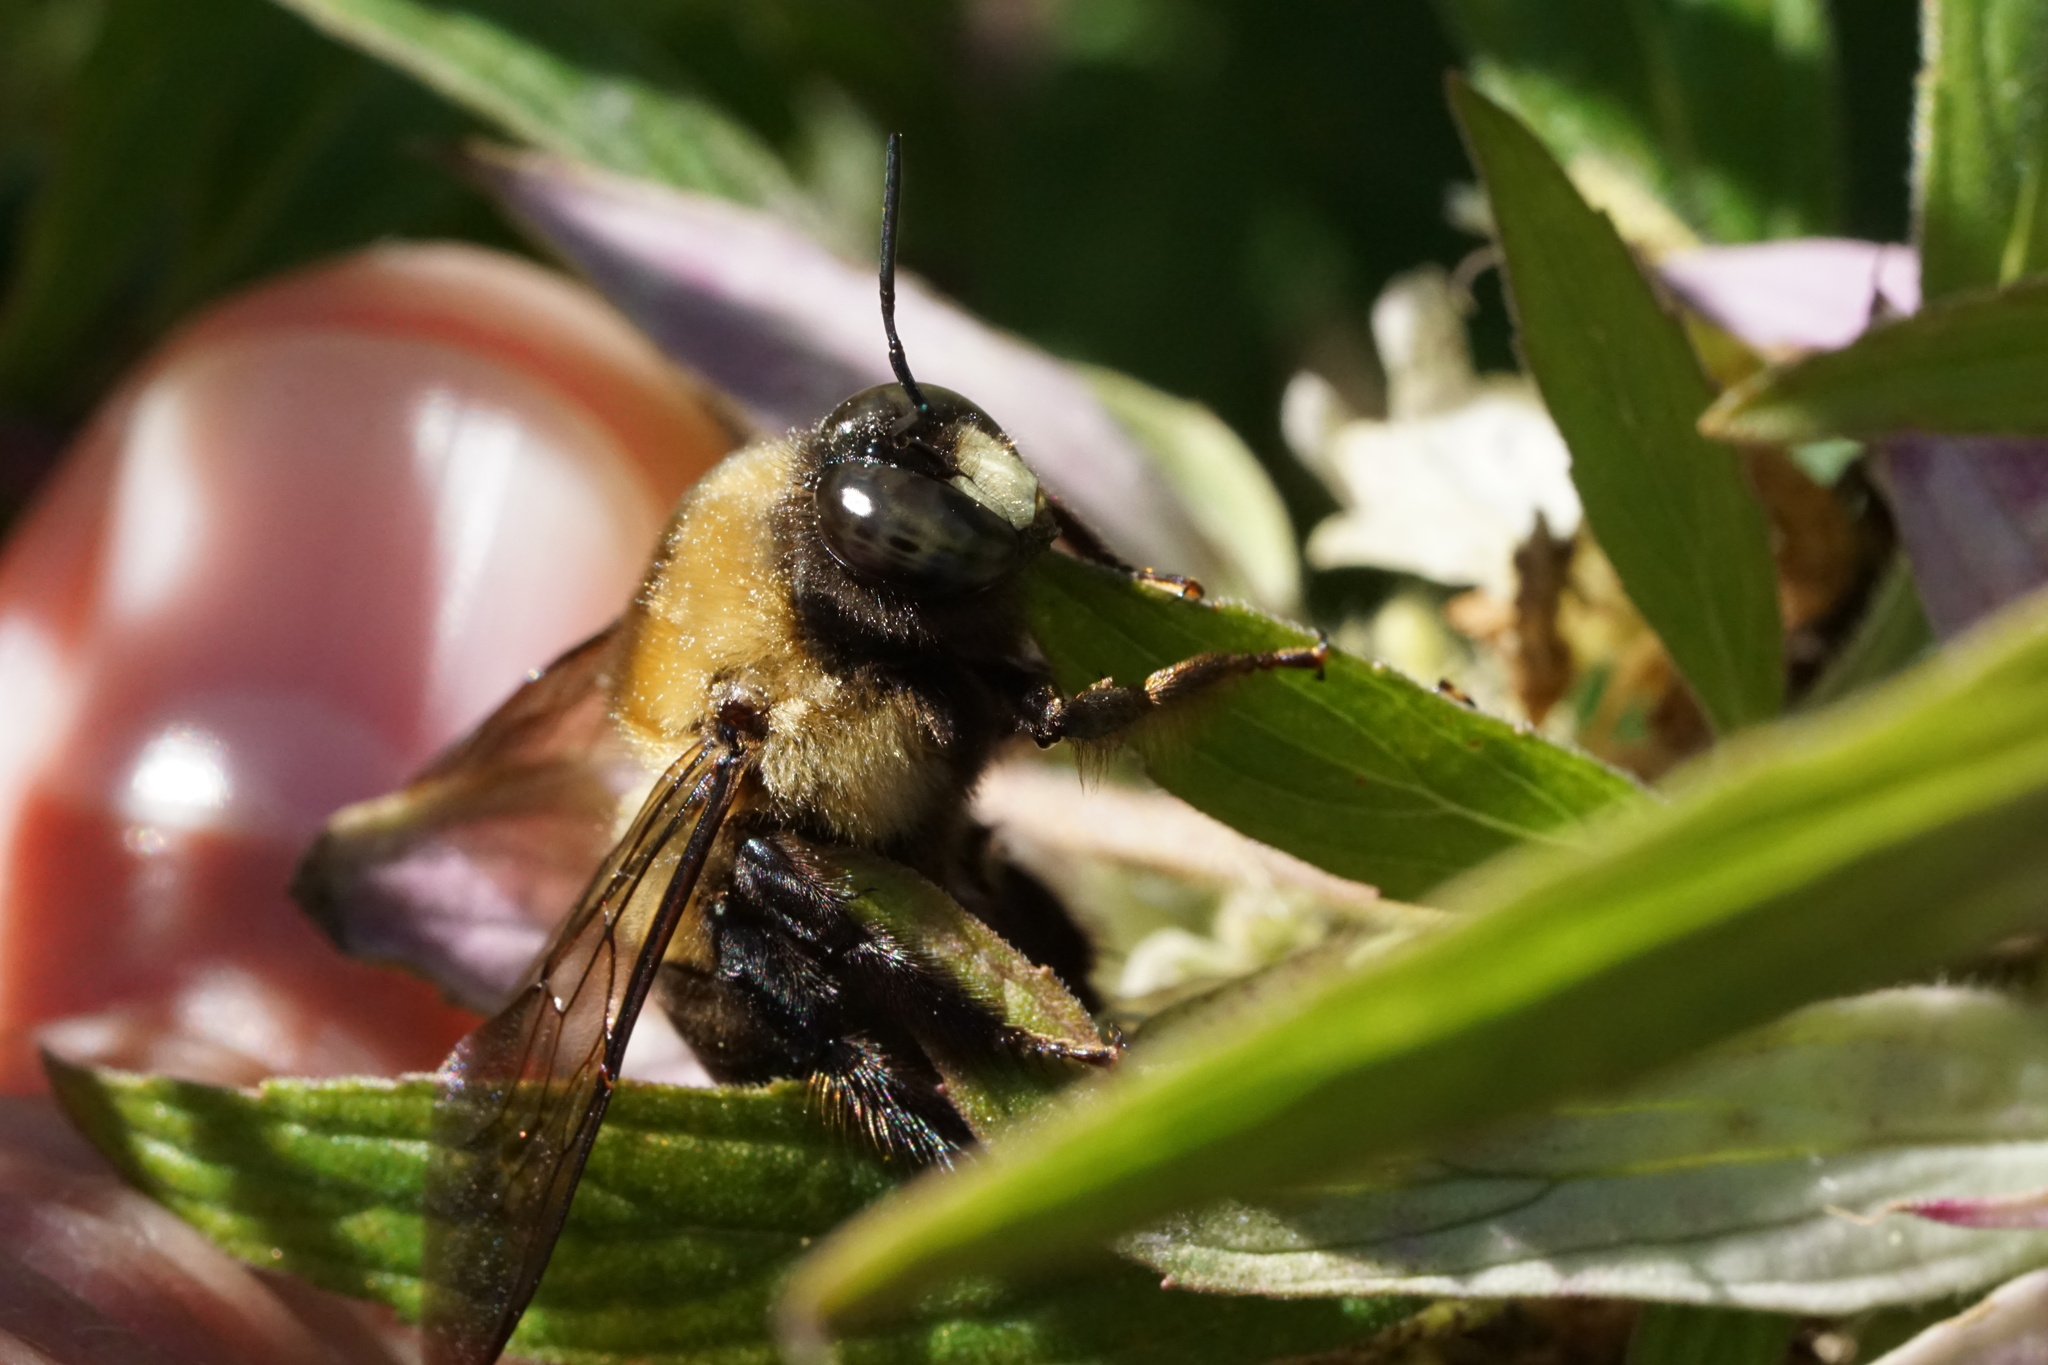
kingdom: Animalia
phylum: Arthropoda
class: Insecta
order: Hymenoptera
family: Apidae
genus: Xylocopa
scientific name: Xylocopa virginica
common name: Carpenter bee
